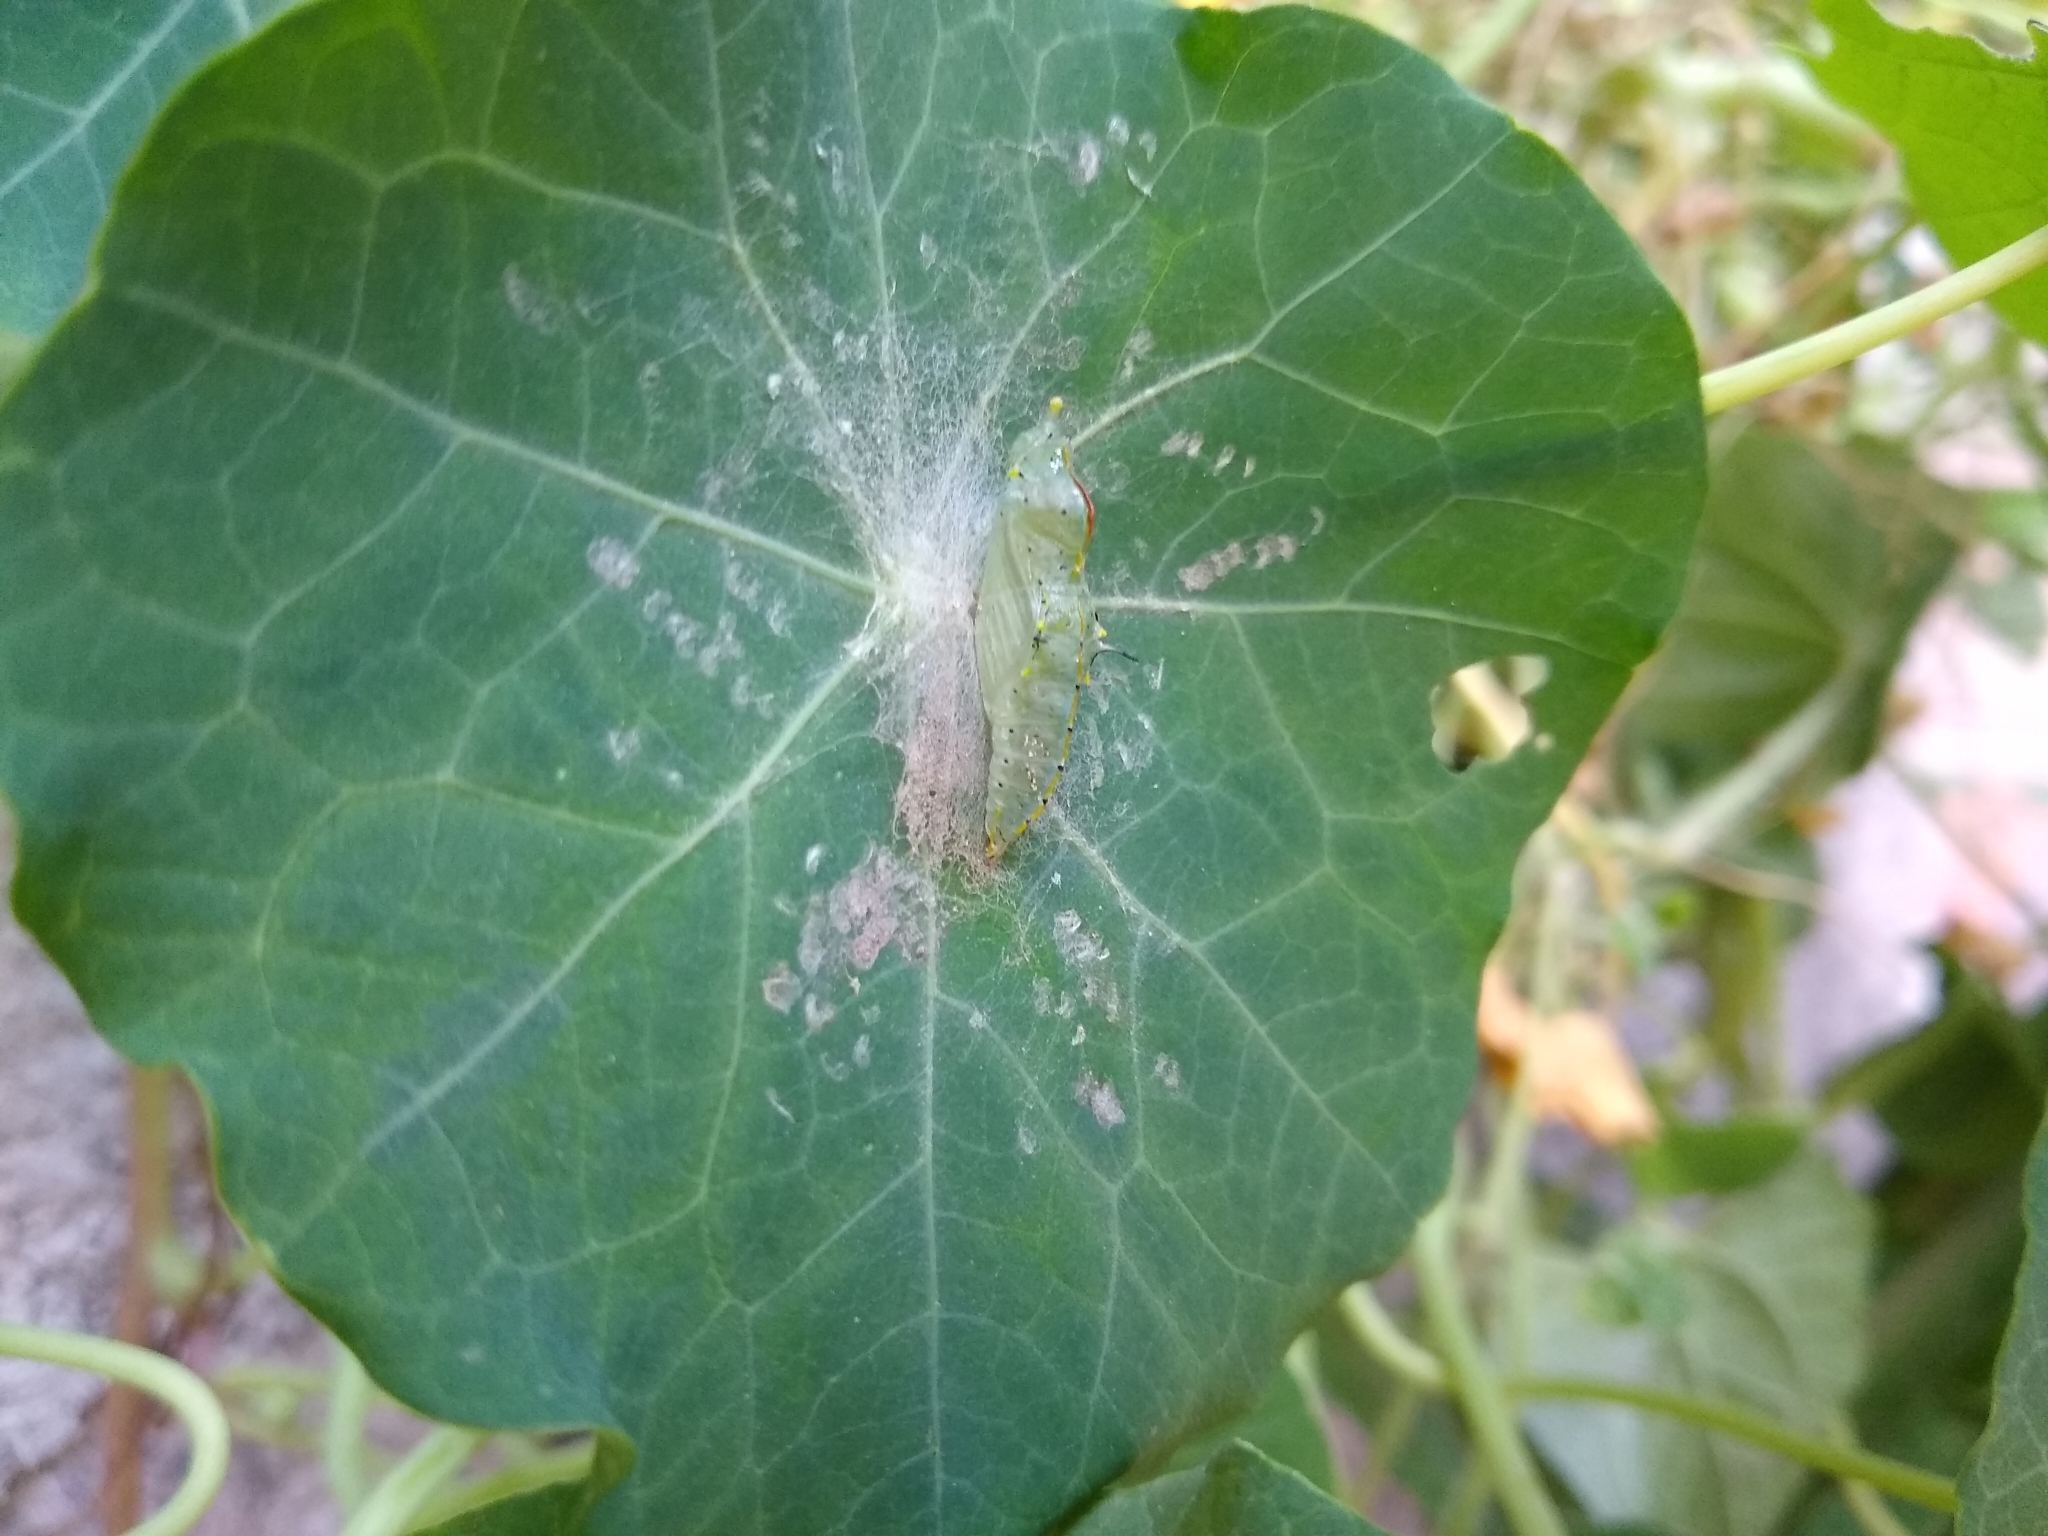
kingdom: Animalia
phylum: Arthropoda
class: Insecta
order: Lepidoptera
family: Pieridae
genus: Leptophobia
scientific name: Leptophobia aripa
